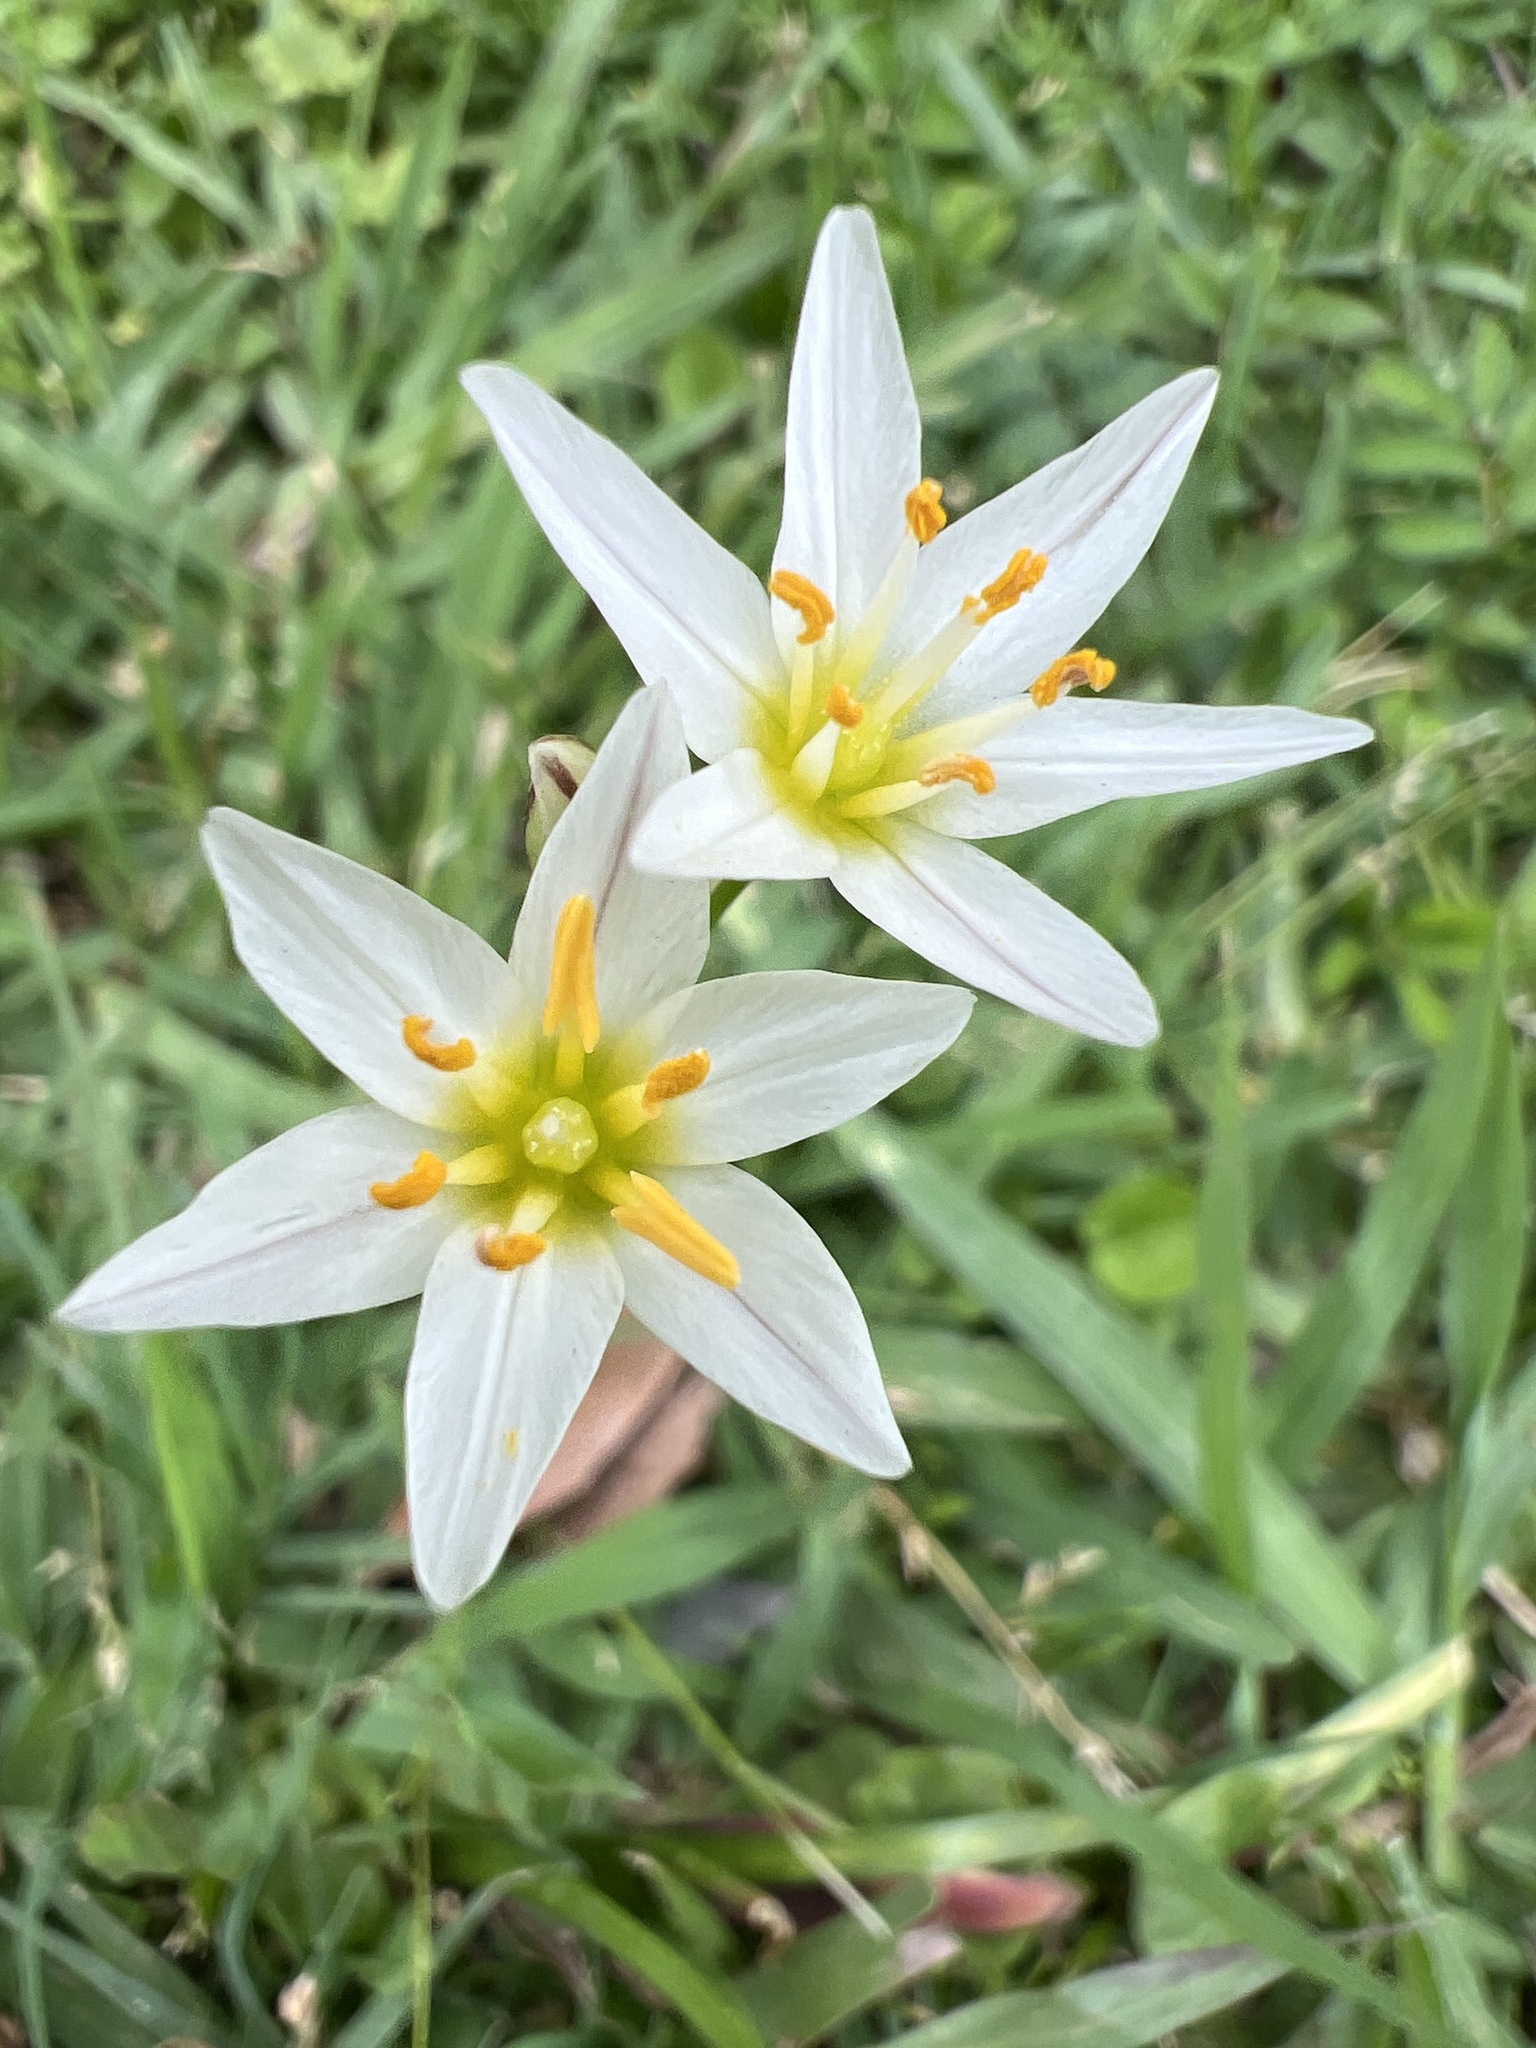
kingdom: Plantae
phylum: Tracheophyta
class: Liliopsida
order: Asparagales
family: Amaryllidaceae
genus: Nothoscordum
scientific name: Nothoscordum bivalve
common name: Crow-poison
